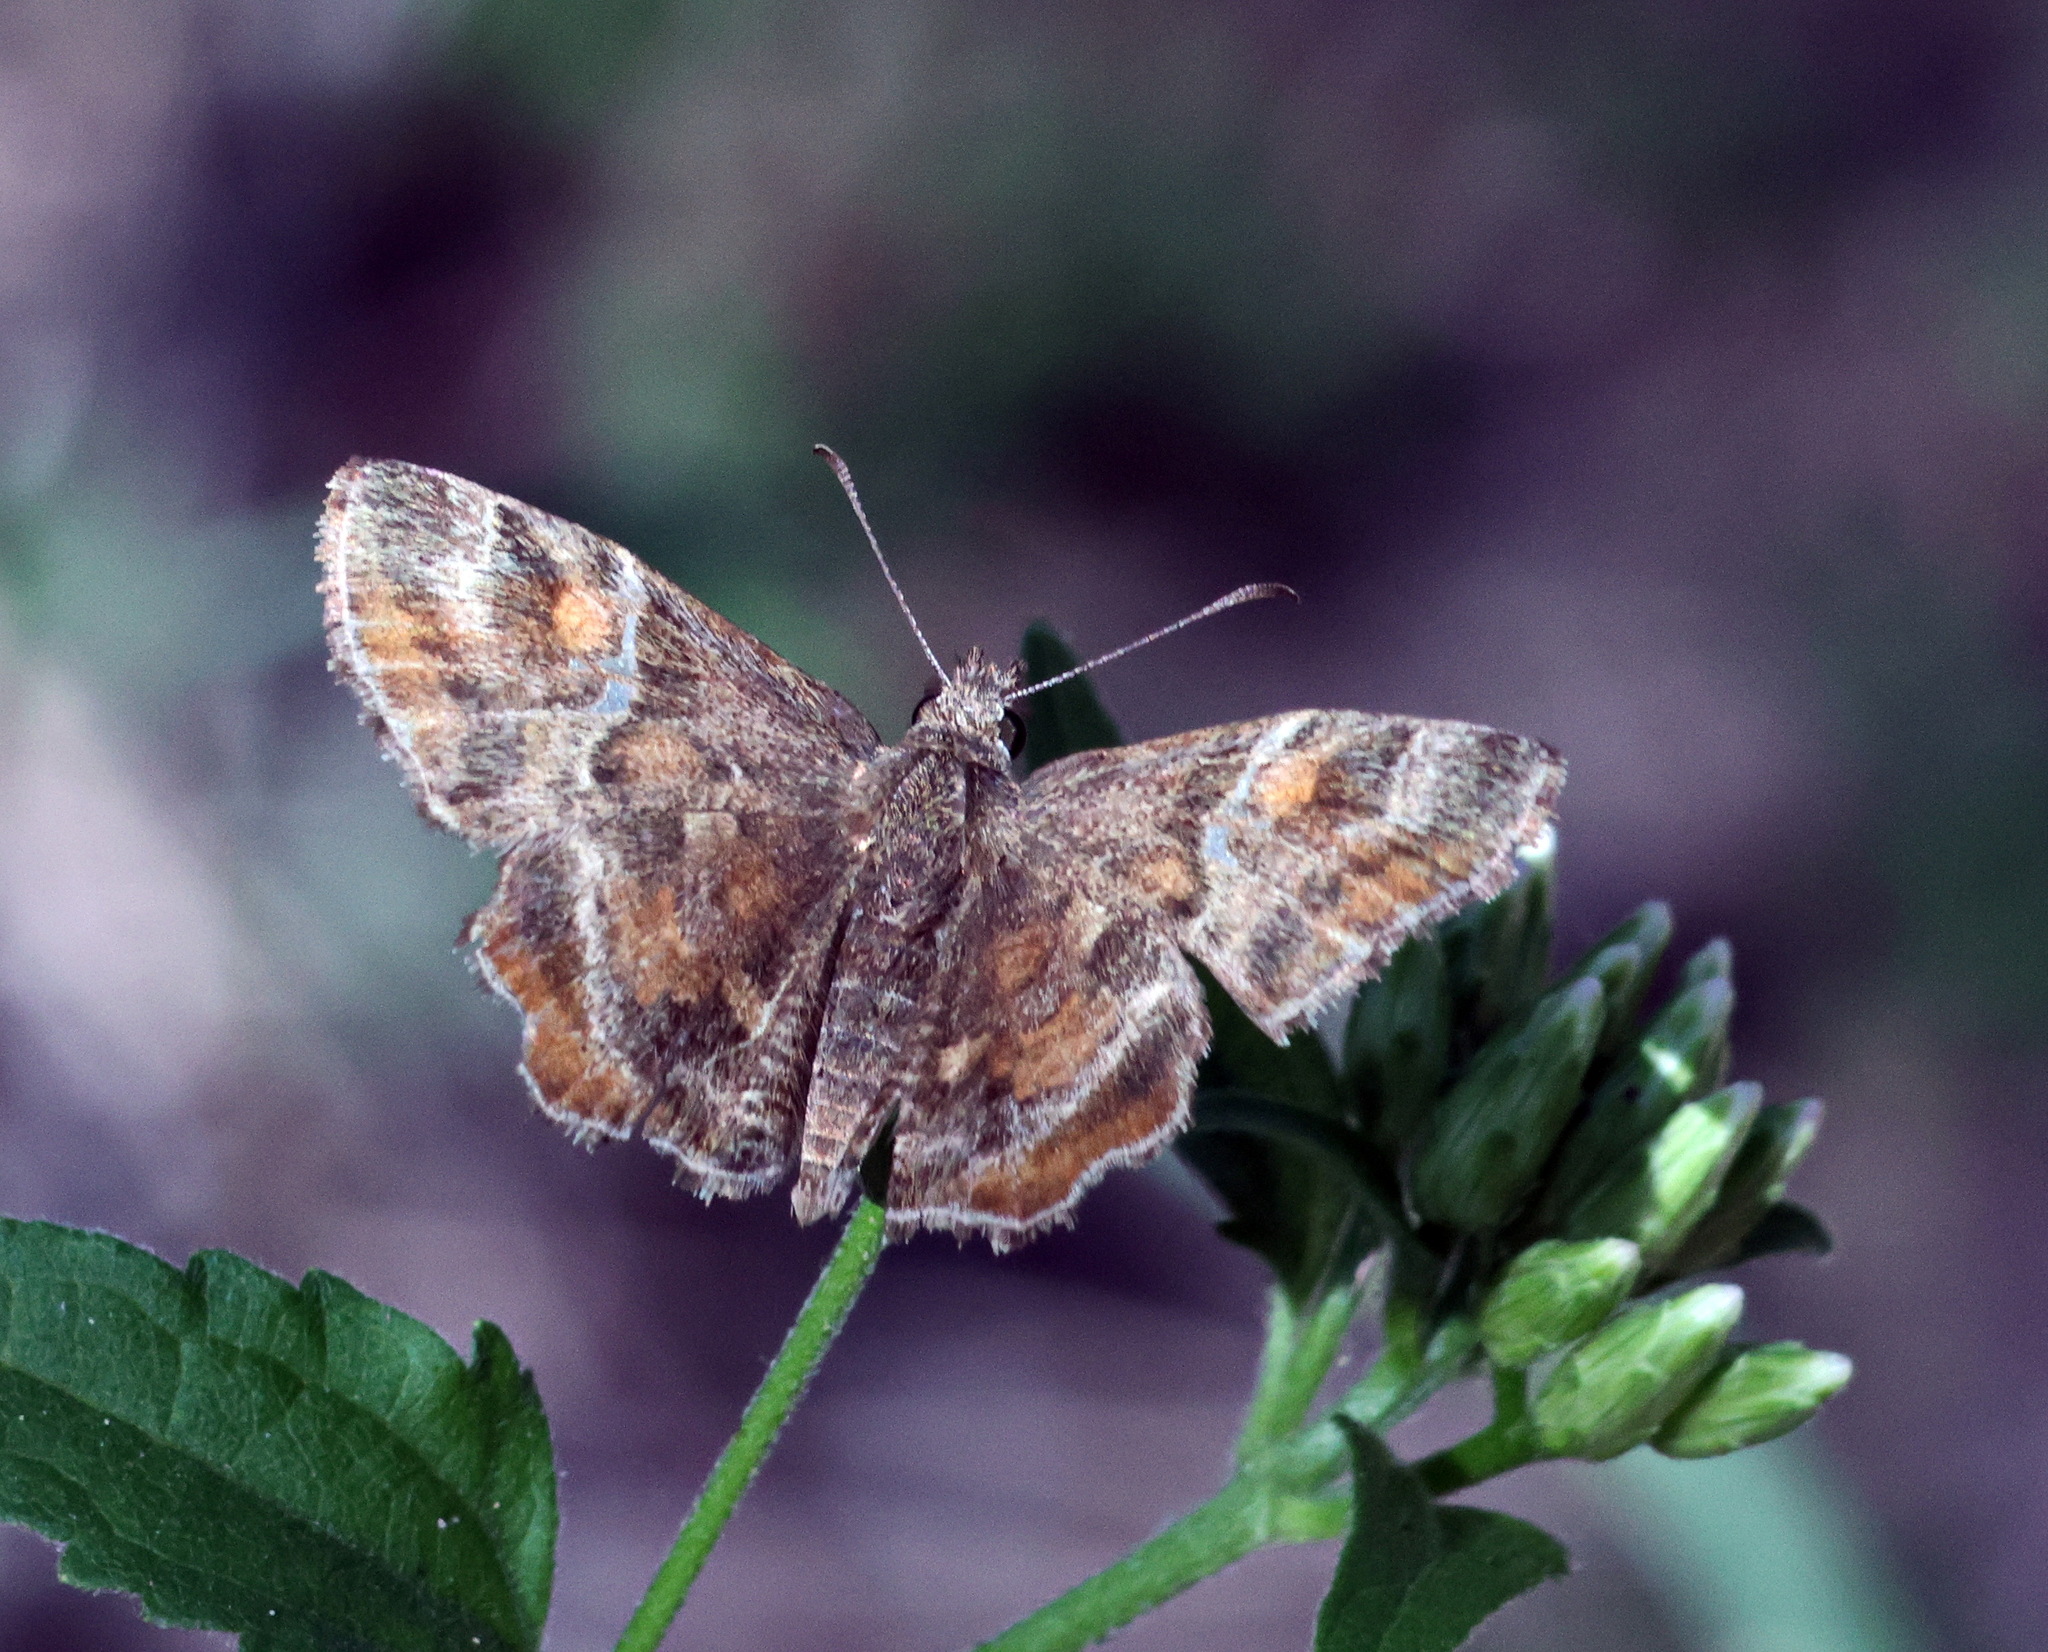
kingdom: Animalia
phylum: Arthropoda
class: Insecta
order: Lepidoptera
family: Hesperiidae
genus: Systasea
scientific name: Systasea pulverulenta
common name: Texas powdered skipper
